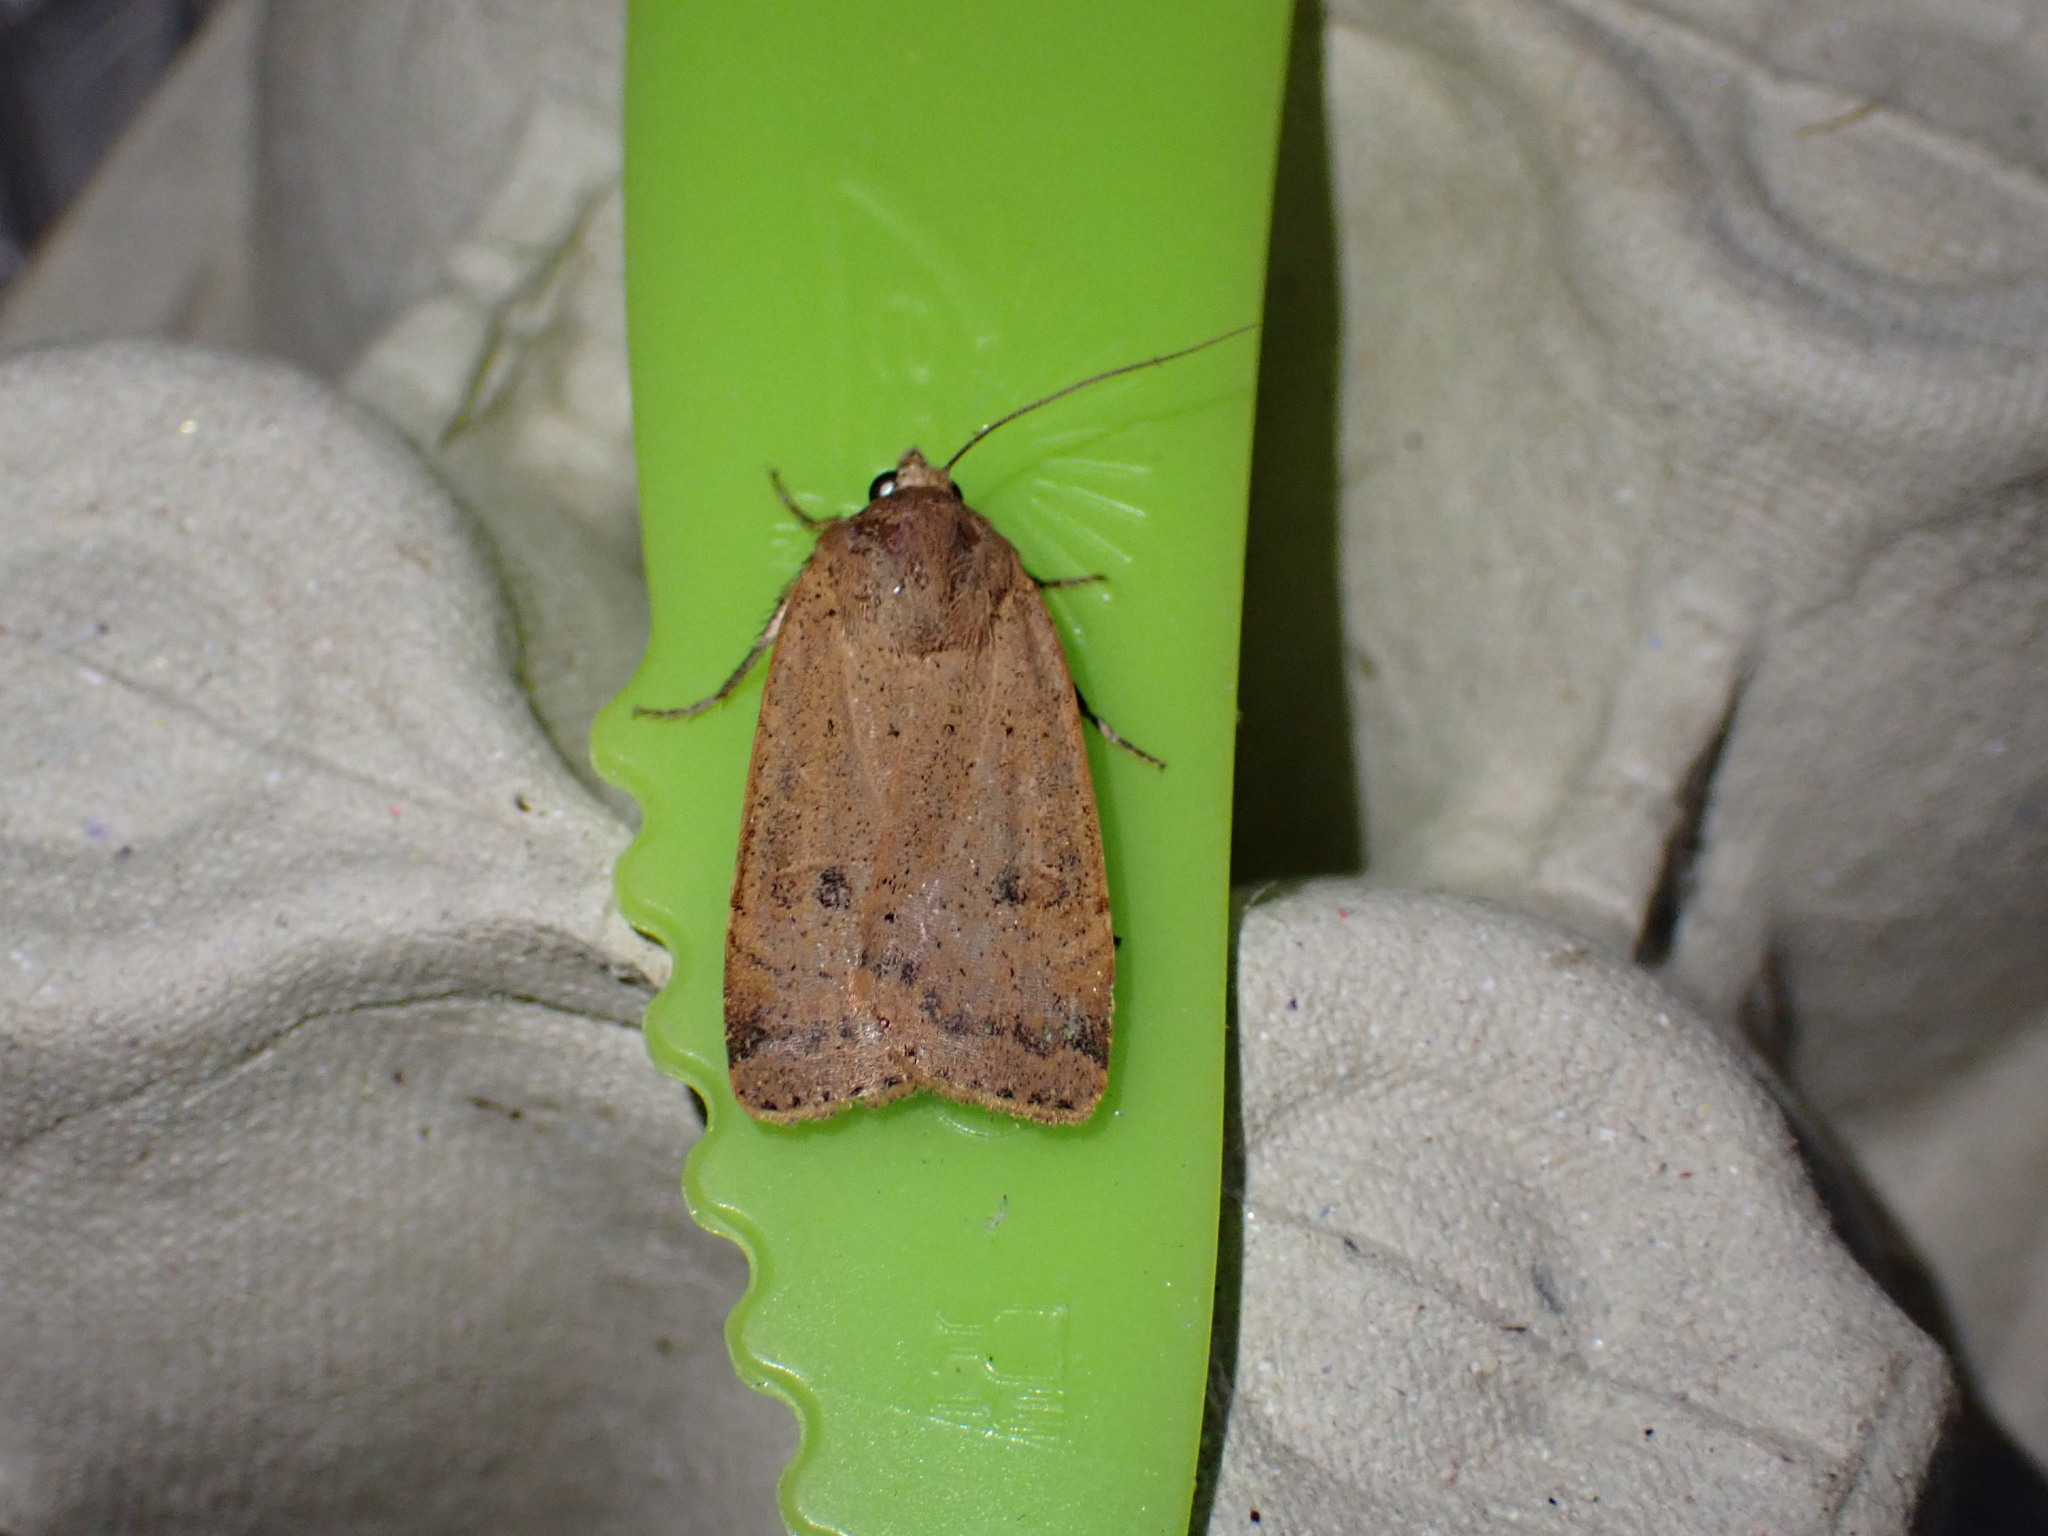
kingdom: Animalia
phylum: Arthropoda
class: Insecta
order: Lepidoptera
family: Noctuidae
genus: Noctua
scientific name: Noctua comes
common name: Lesser yellow underwing
